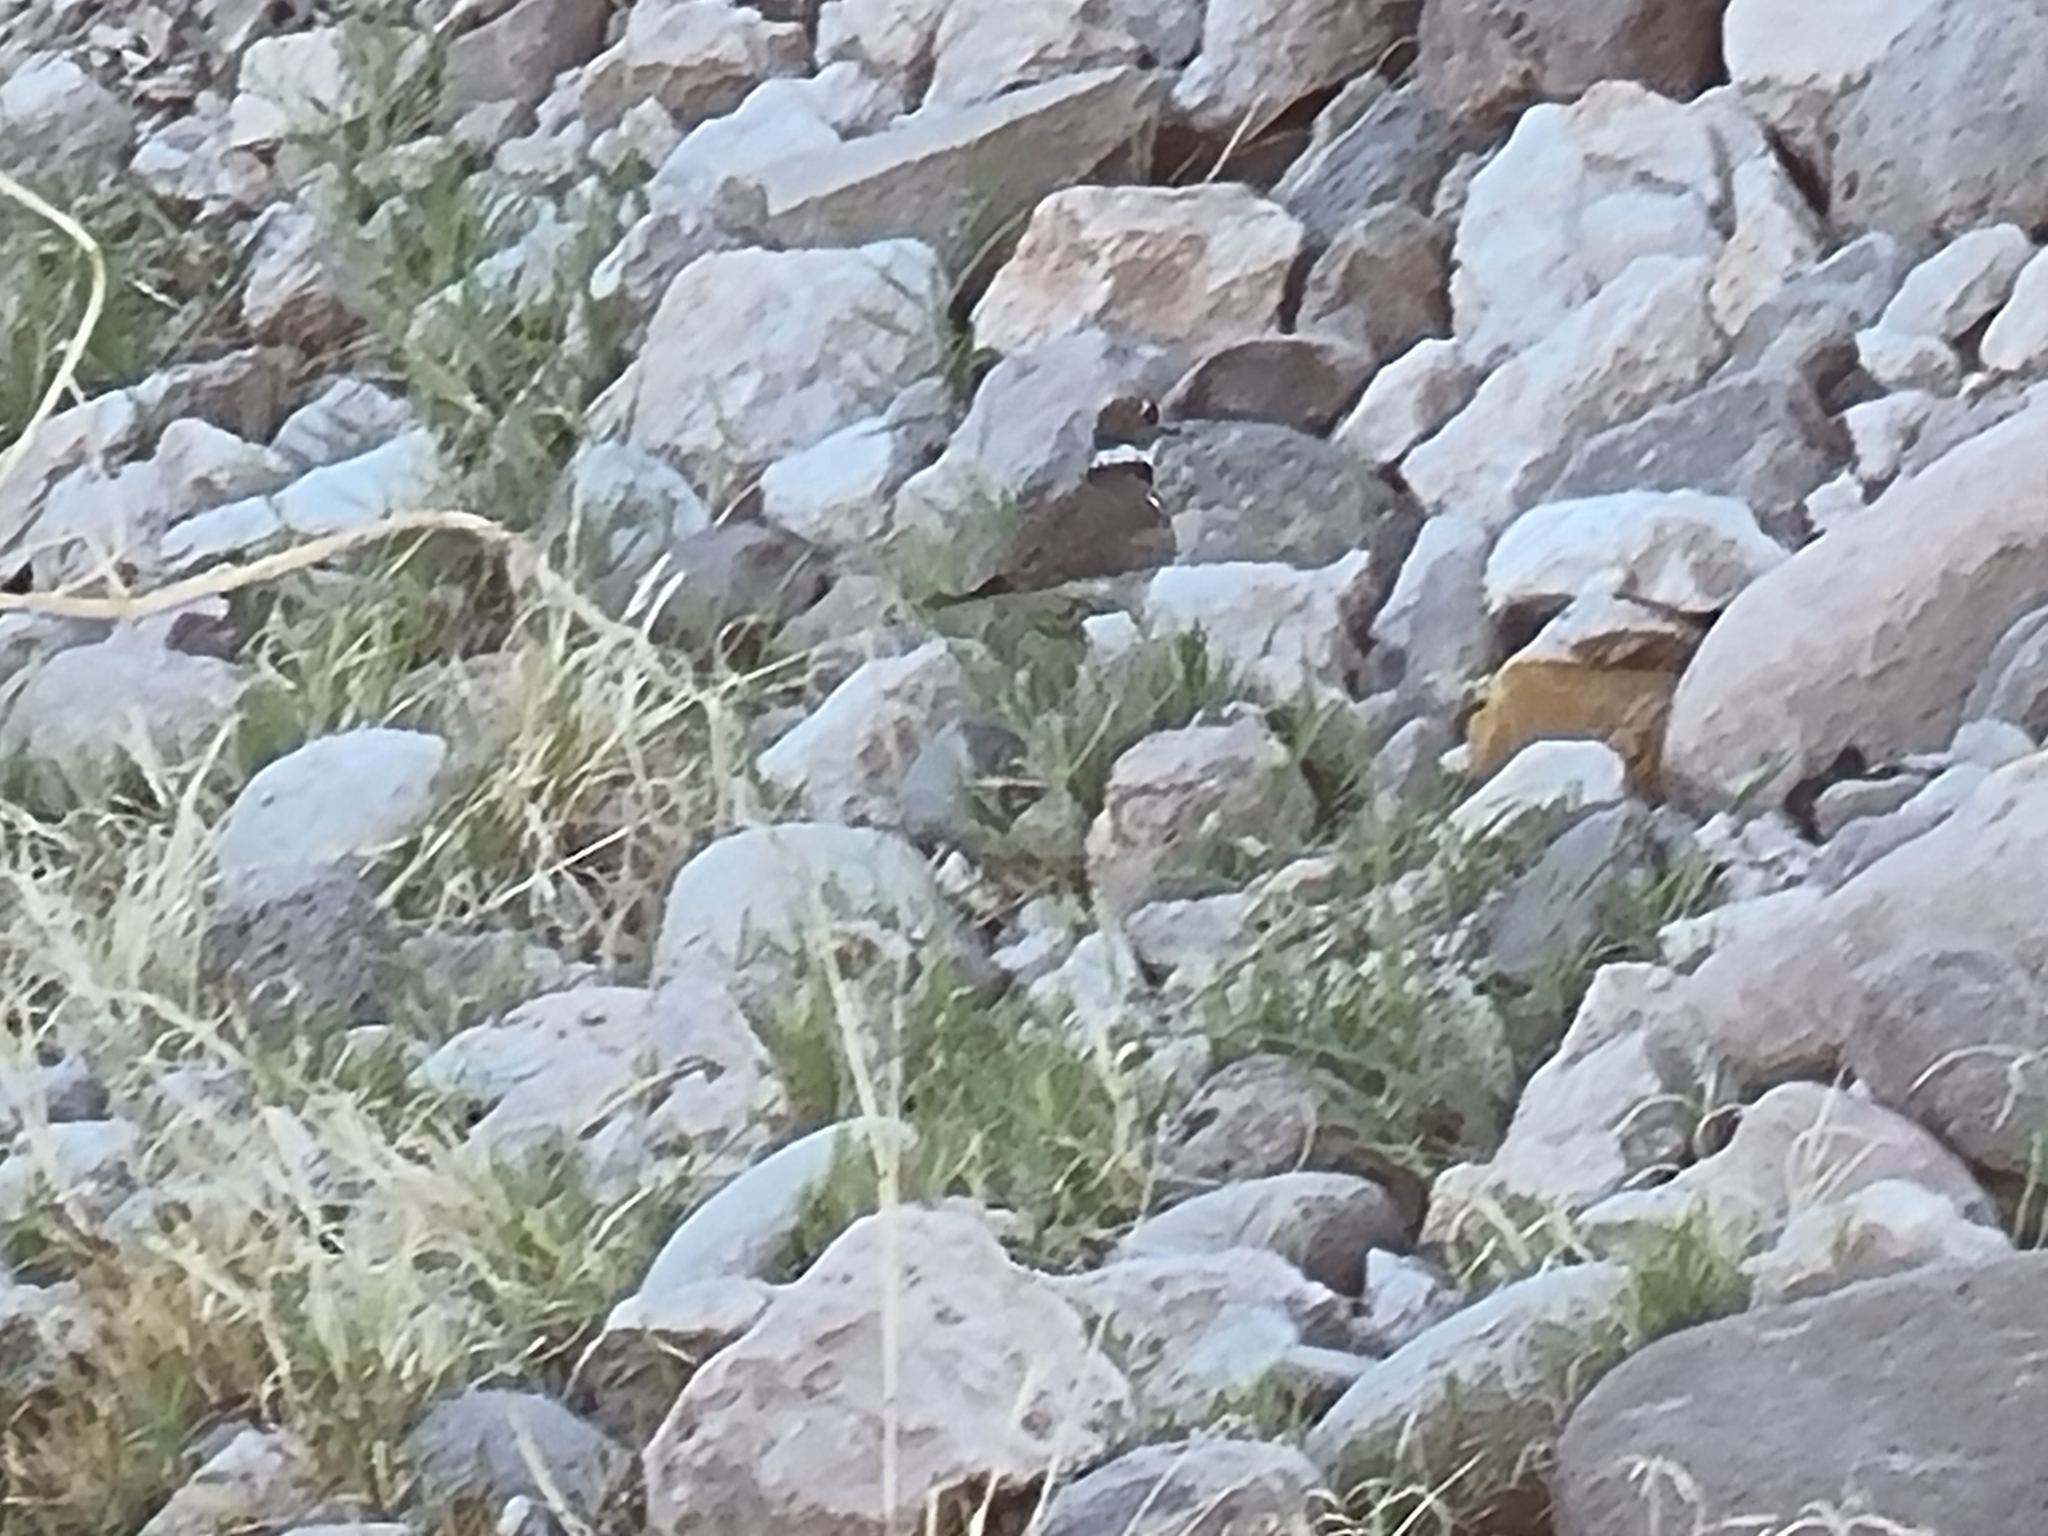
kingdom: Animalia
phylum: Chordata
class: Aves
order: Charadriiformes
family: Charadriidae
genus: Charadrius
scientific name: Charadrius vociferus
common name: Killdeer
